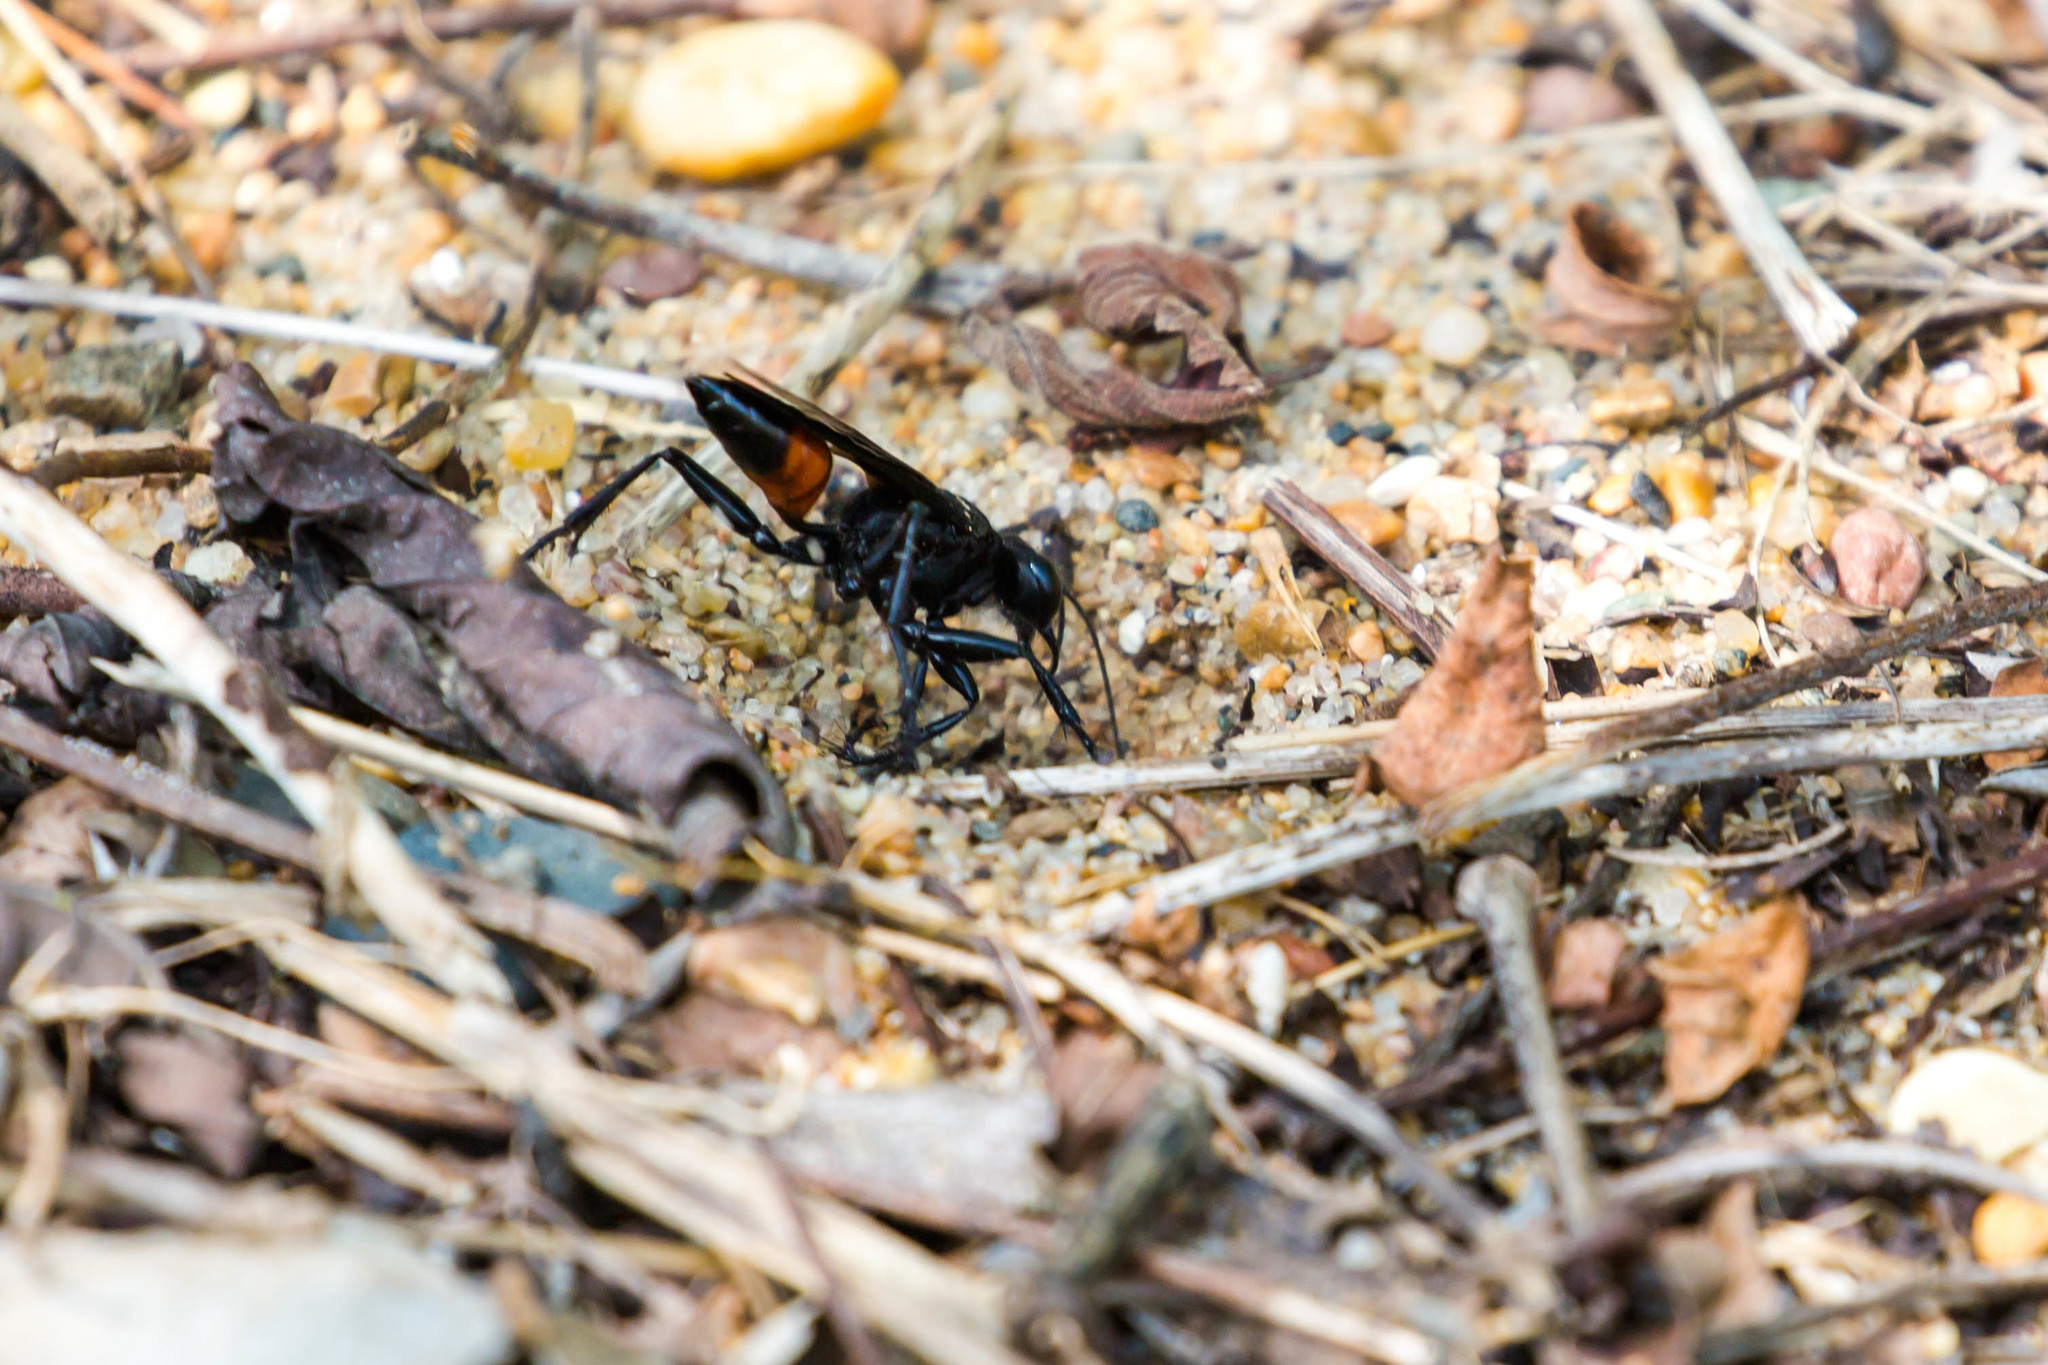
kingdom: Animalia
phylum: Arthropoda
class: Insecta
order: Hymenoptera
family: Sphecidae
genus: Palmodes
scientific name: Palmodes dimidiatus
